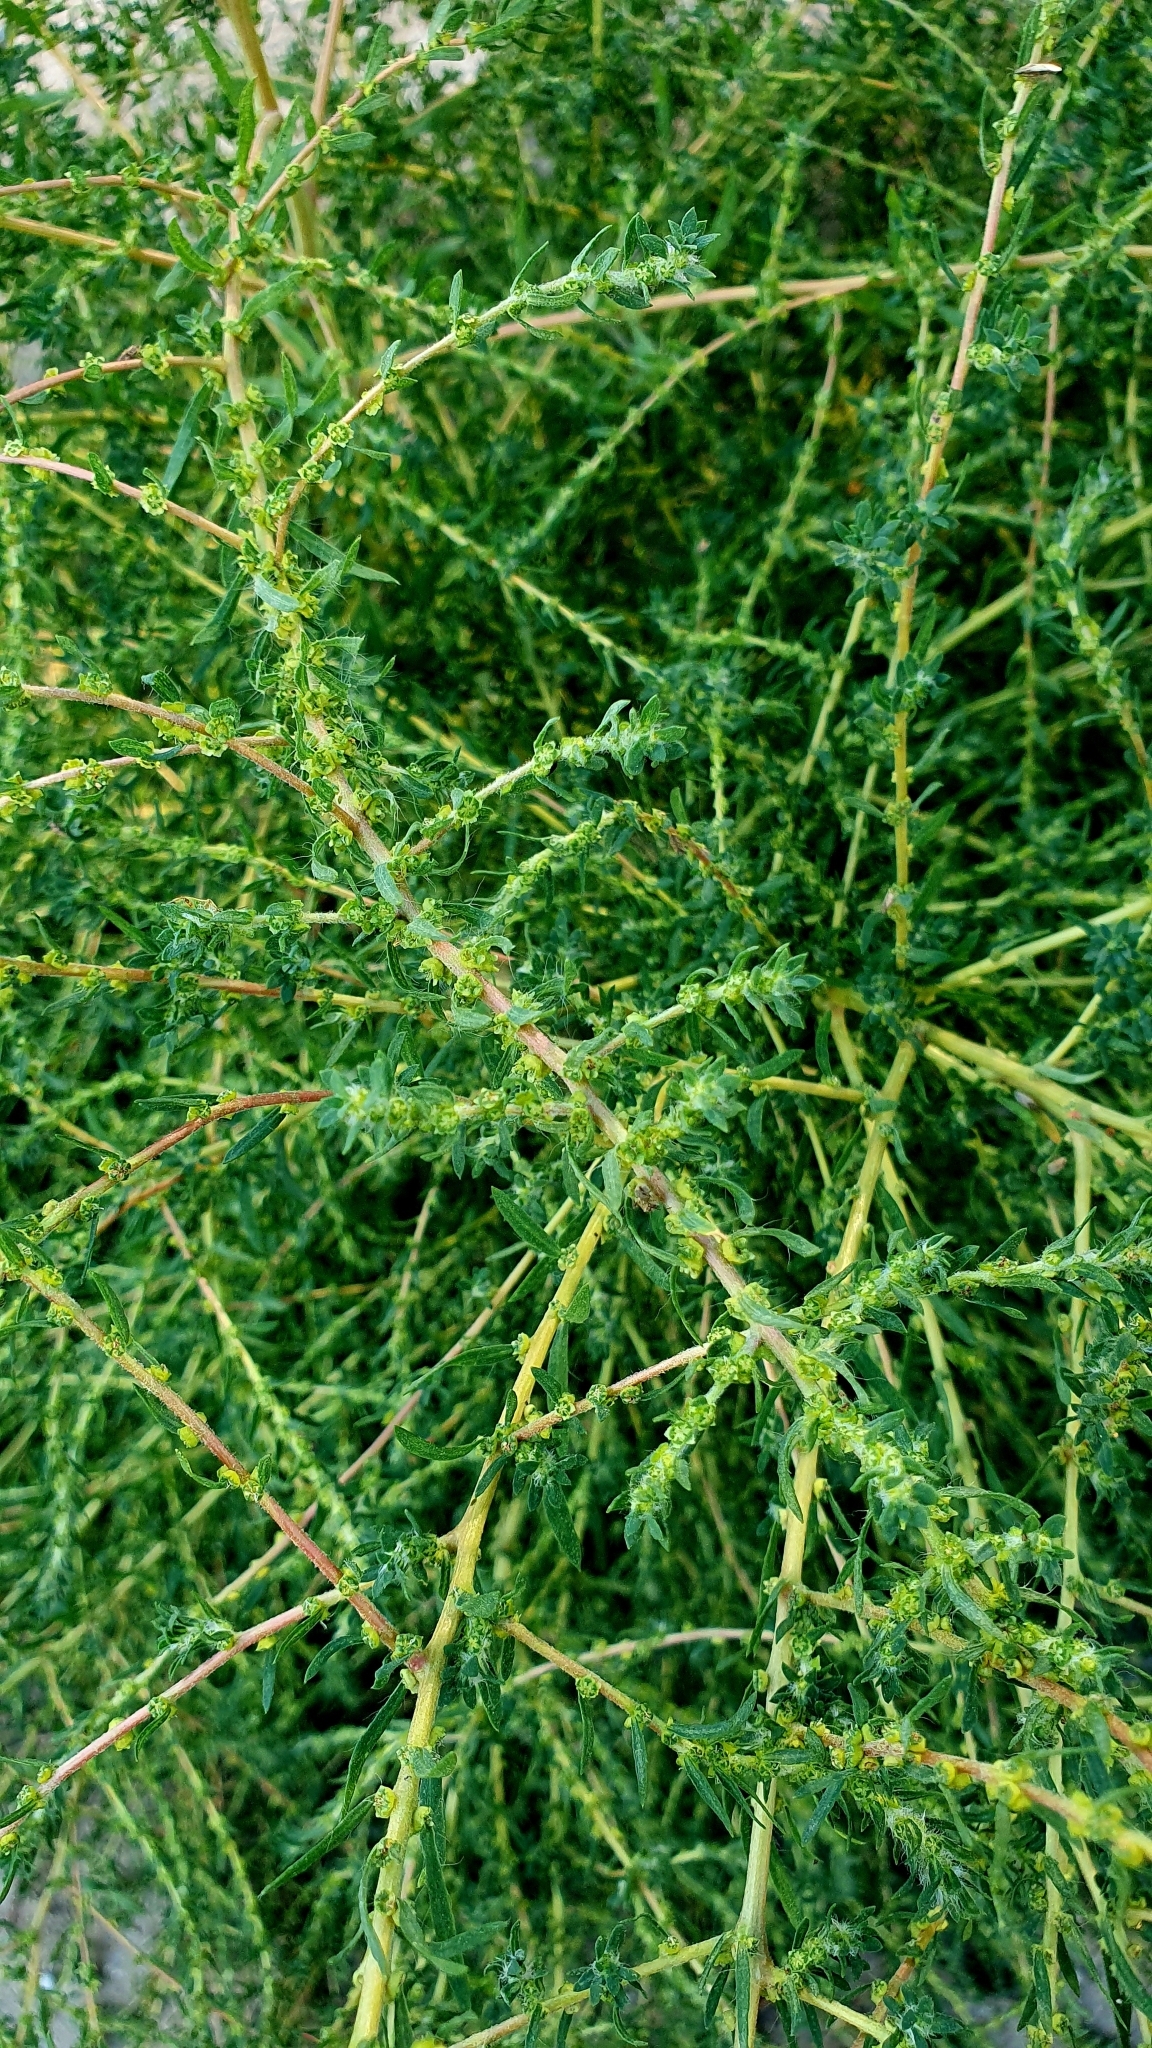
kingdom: Plantae
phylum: Tracheophyta
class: Magnoliopsida
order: Caryophyllales
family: Amaranthaceae
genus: Bassia
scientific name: Bassia scoparia
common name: Belvedere
